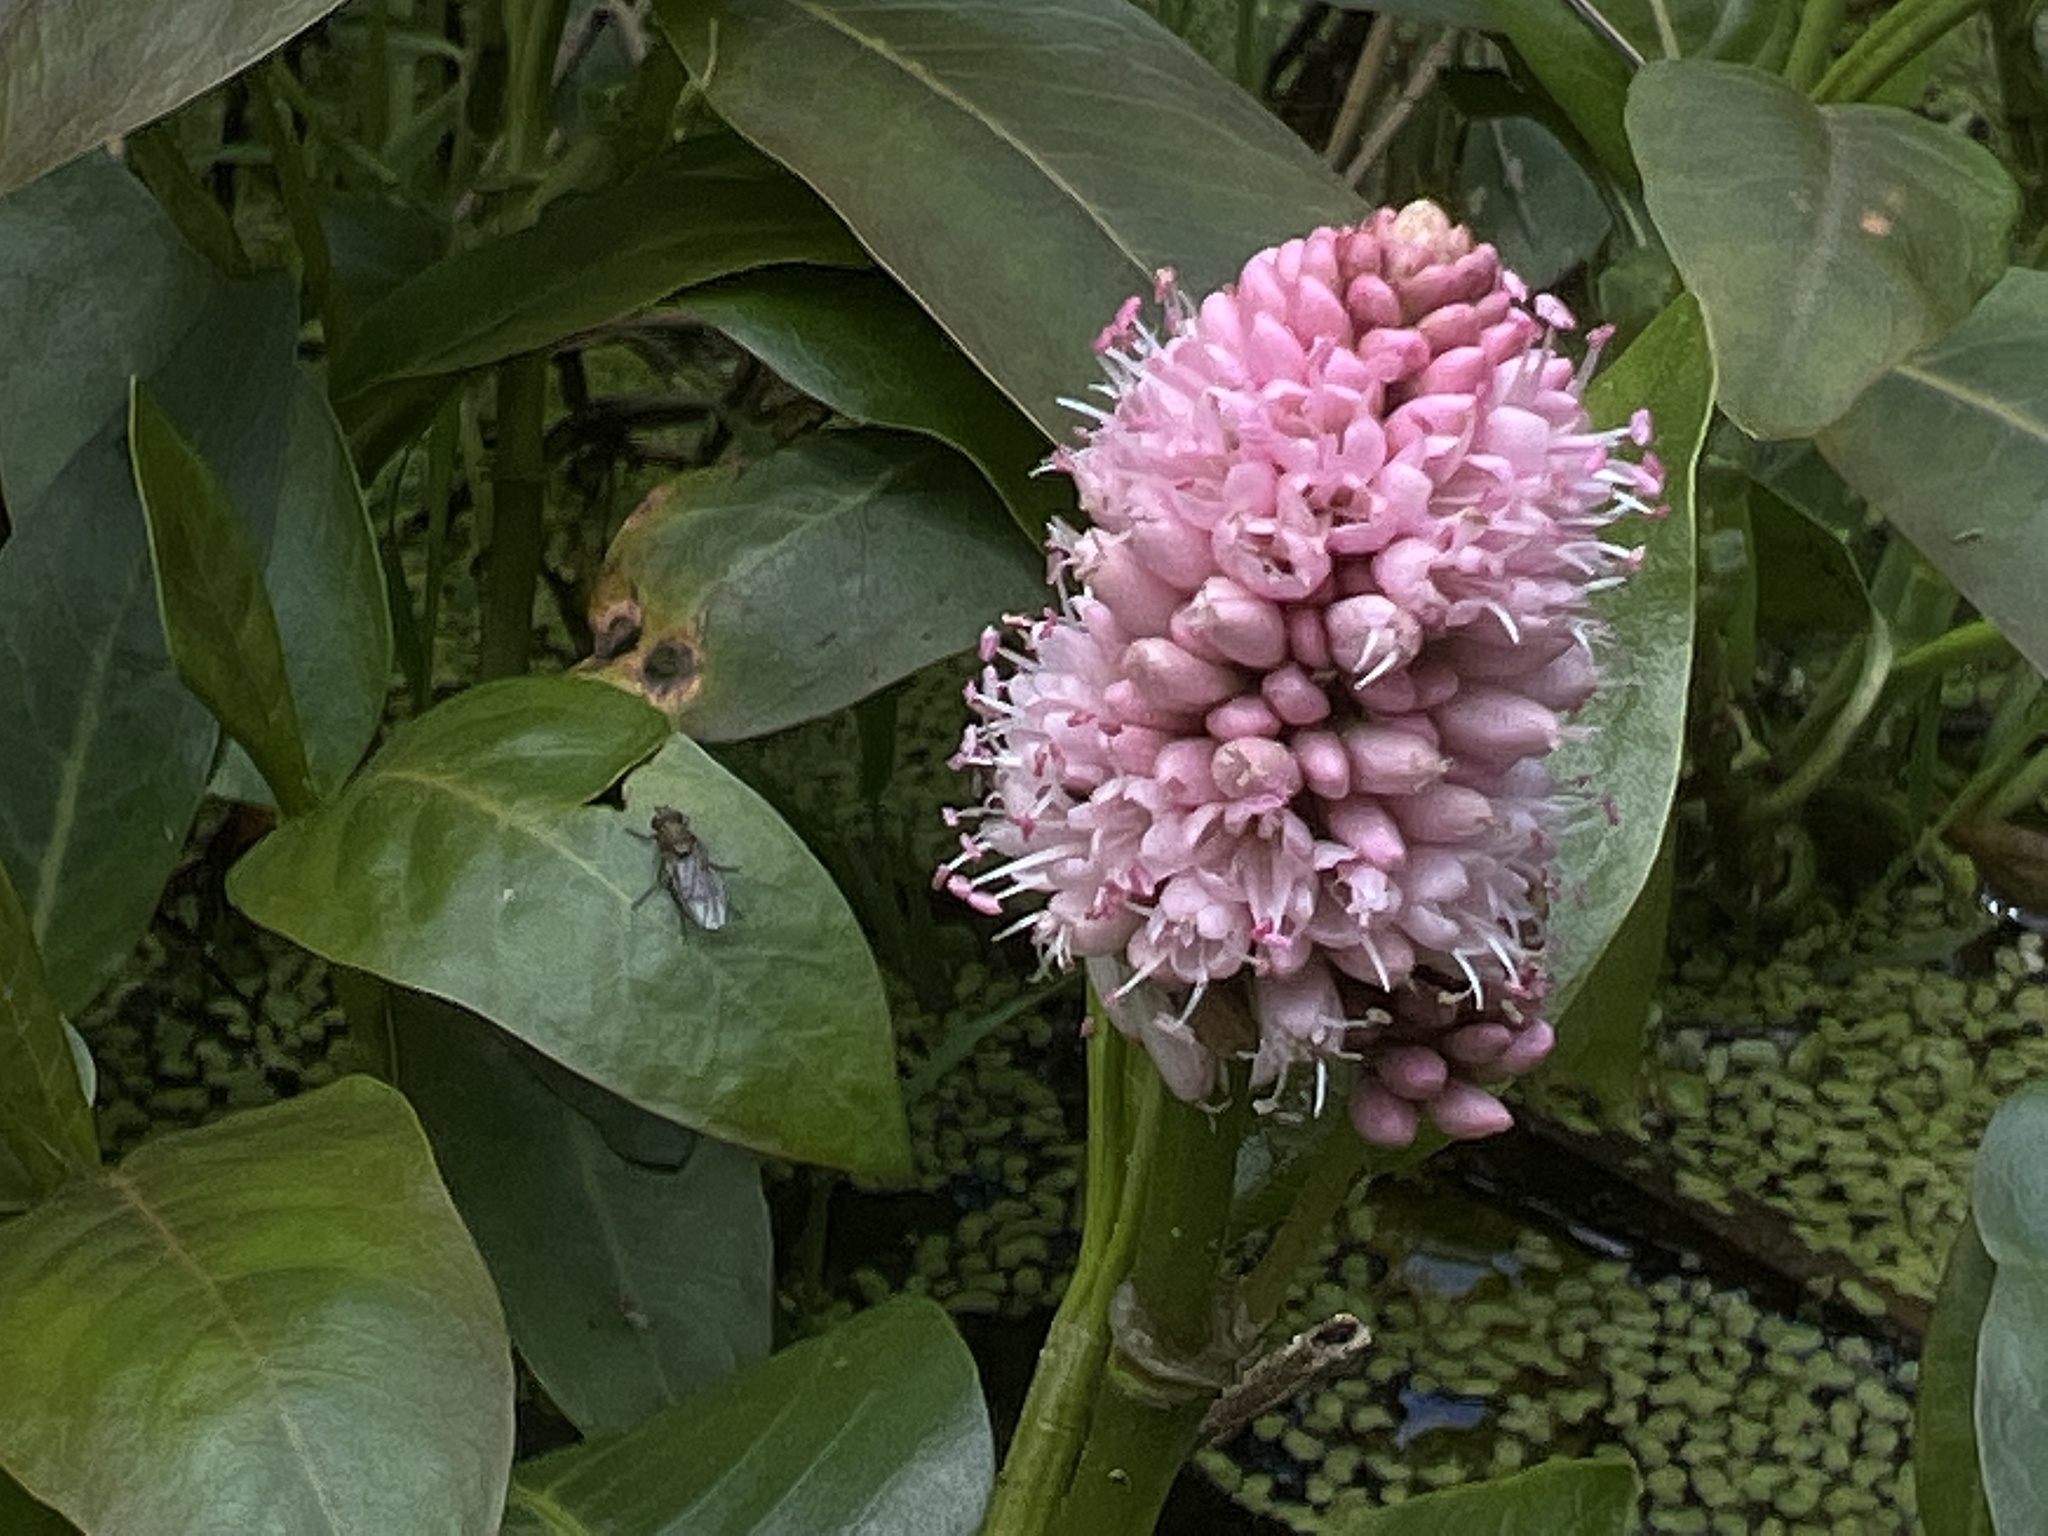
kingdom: Plantae
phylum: Tracheophyta
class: Magnoliopsida
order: Caryophyllales
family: Polygonaceae
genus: Persicaria
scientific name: Persicaria amphibia
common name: Amphibious bistort
